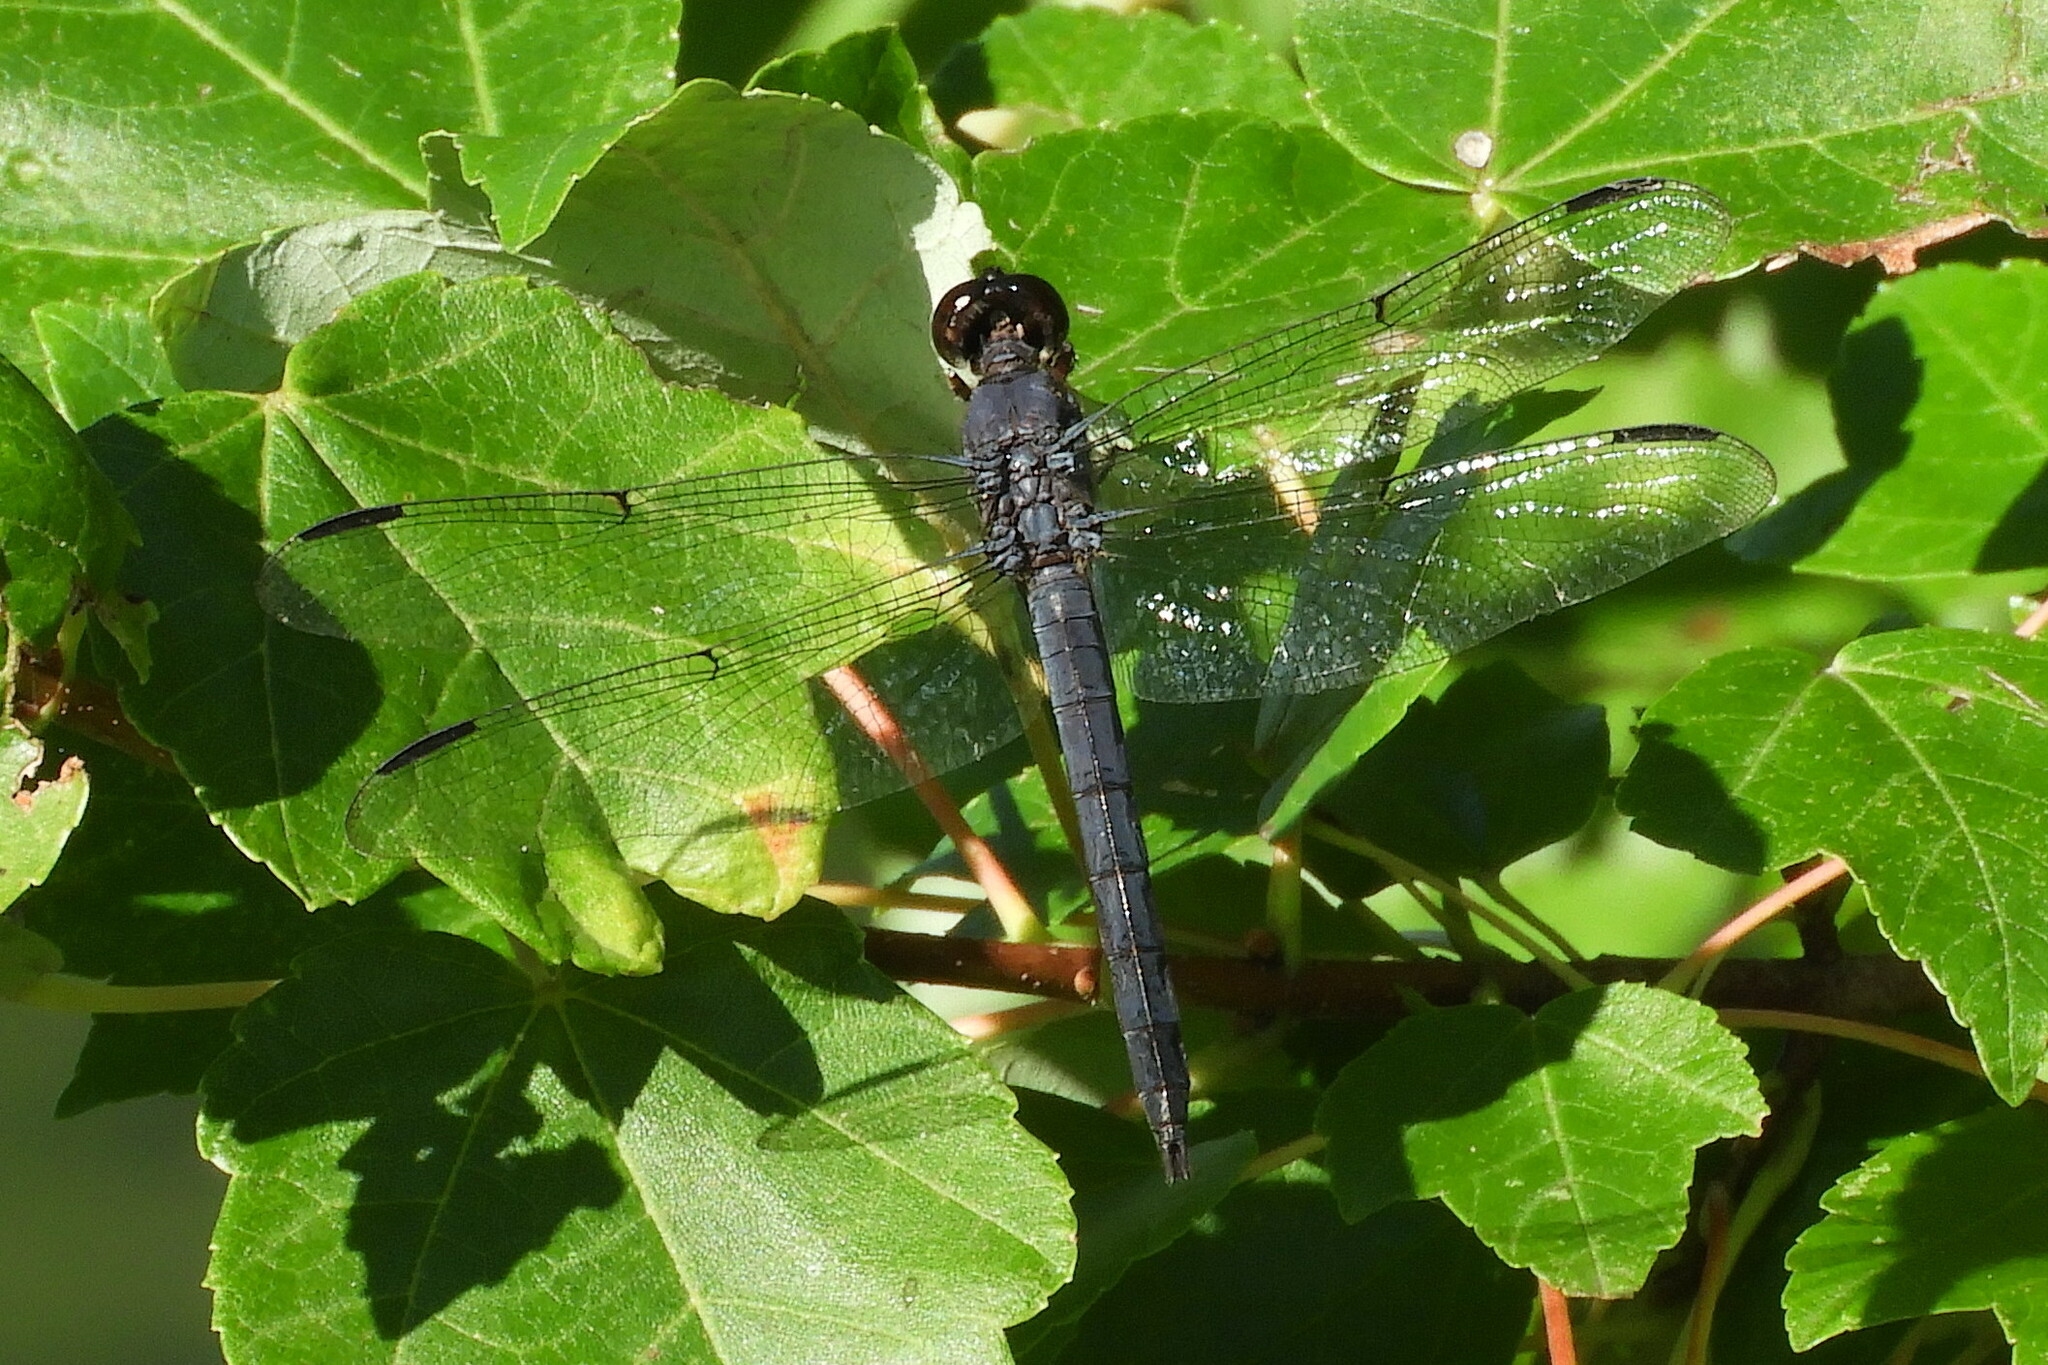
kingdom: Animalia
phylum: Arthropoda
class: Insecta
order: Odonata
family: Libellulidae
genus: Libellula
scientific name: Libellula incesta
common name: Slaty skimmer
